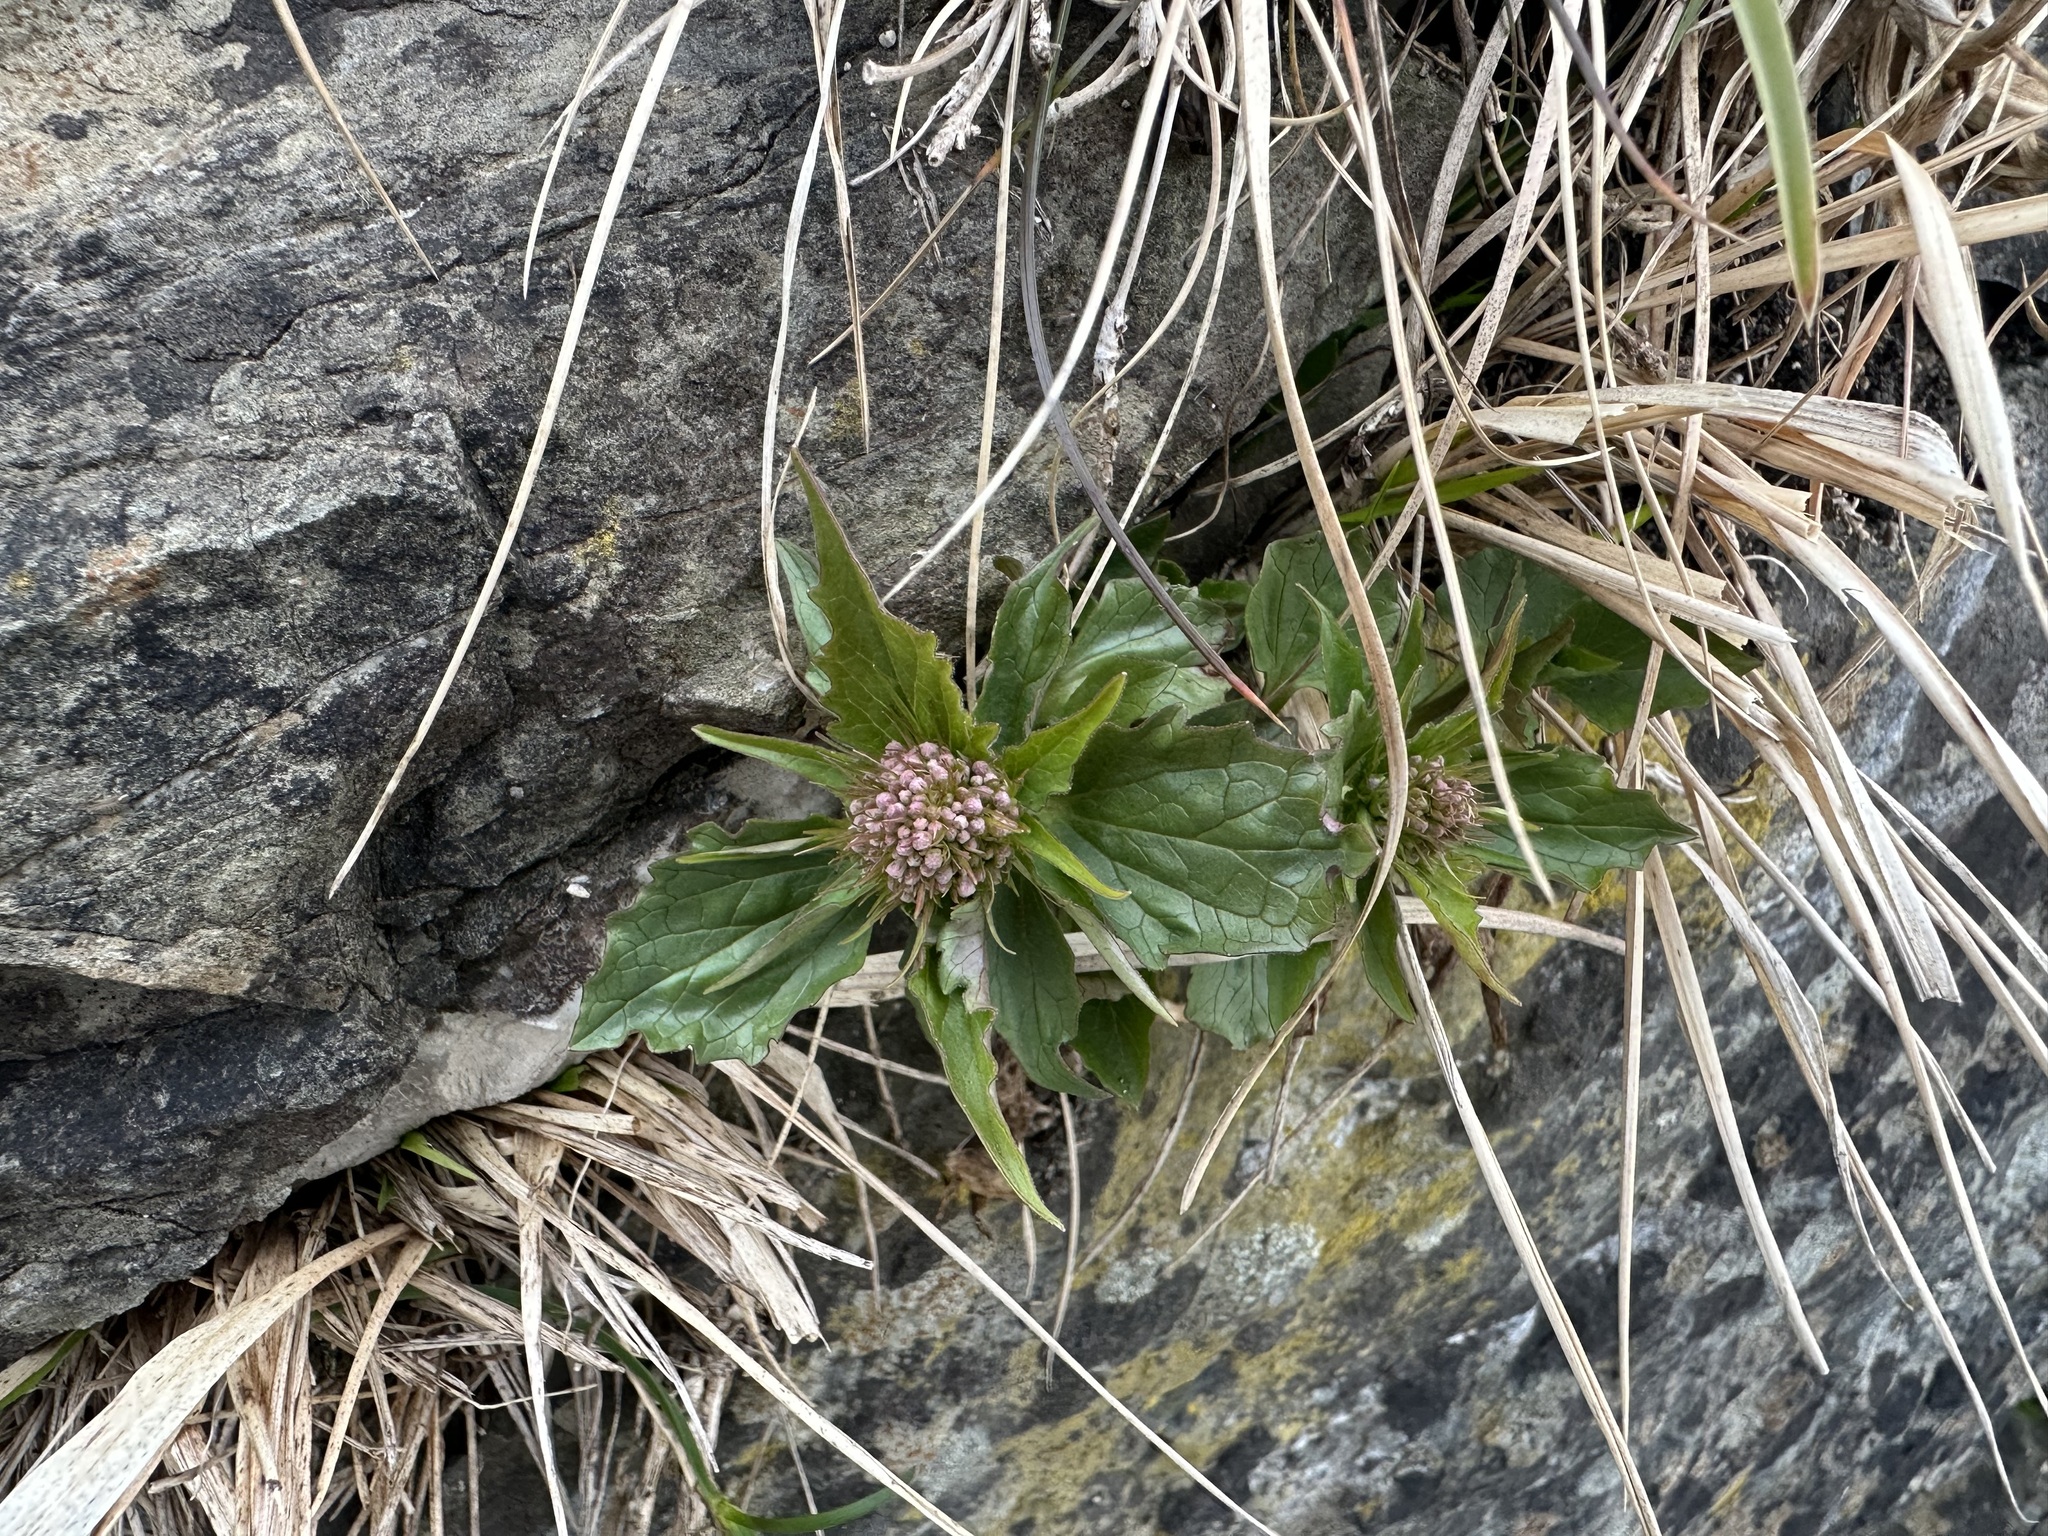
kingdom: Plantae
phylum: Tracheophyta
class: Magnoliopsida
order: Dipsacales
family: Caprifoliaceae
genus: Valeriana
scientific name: Valeriana tripteris
